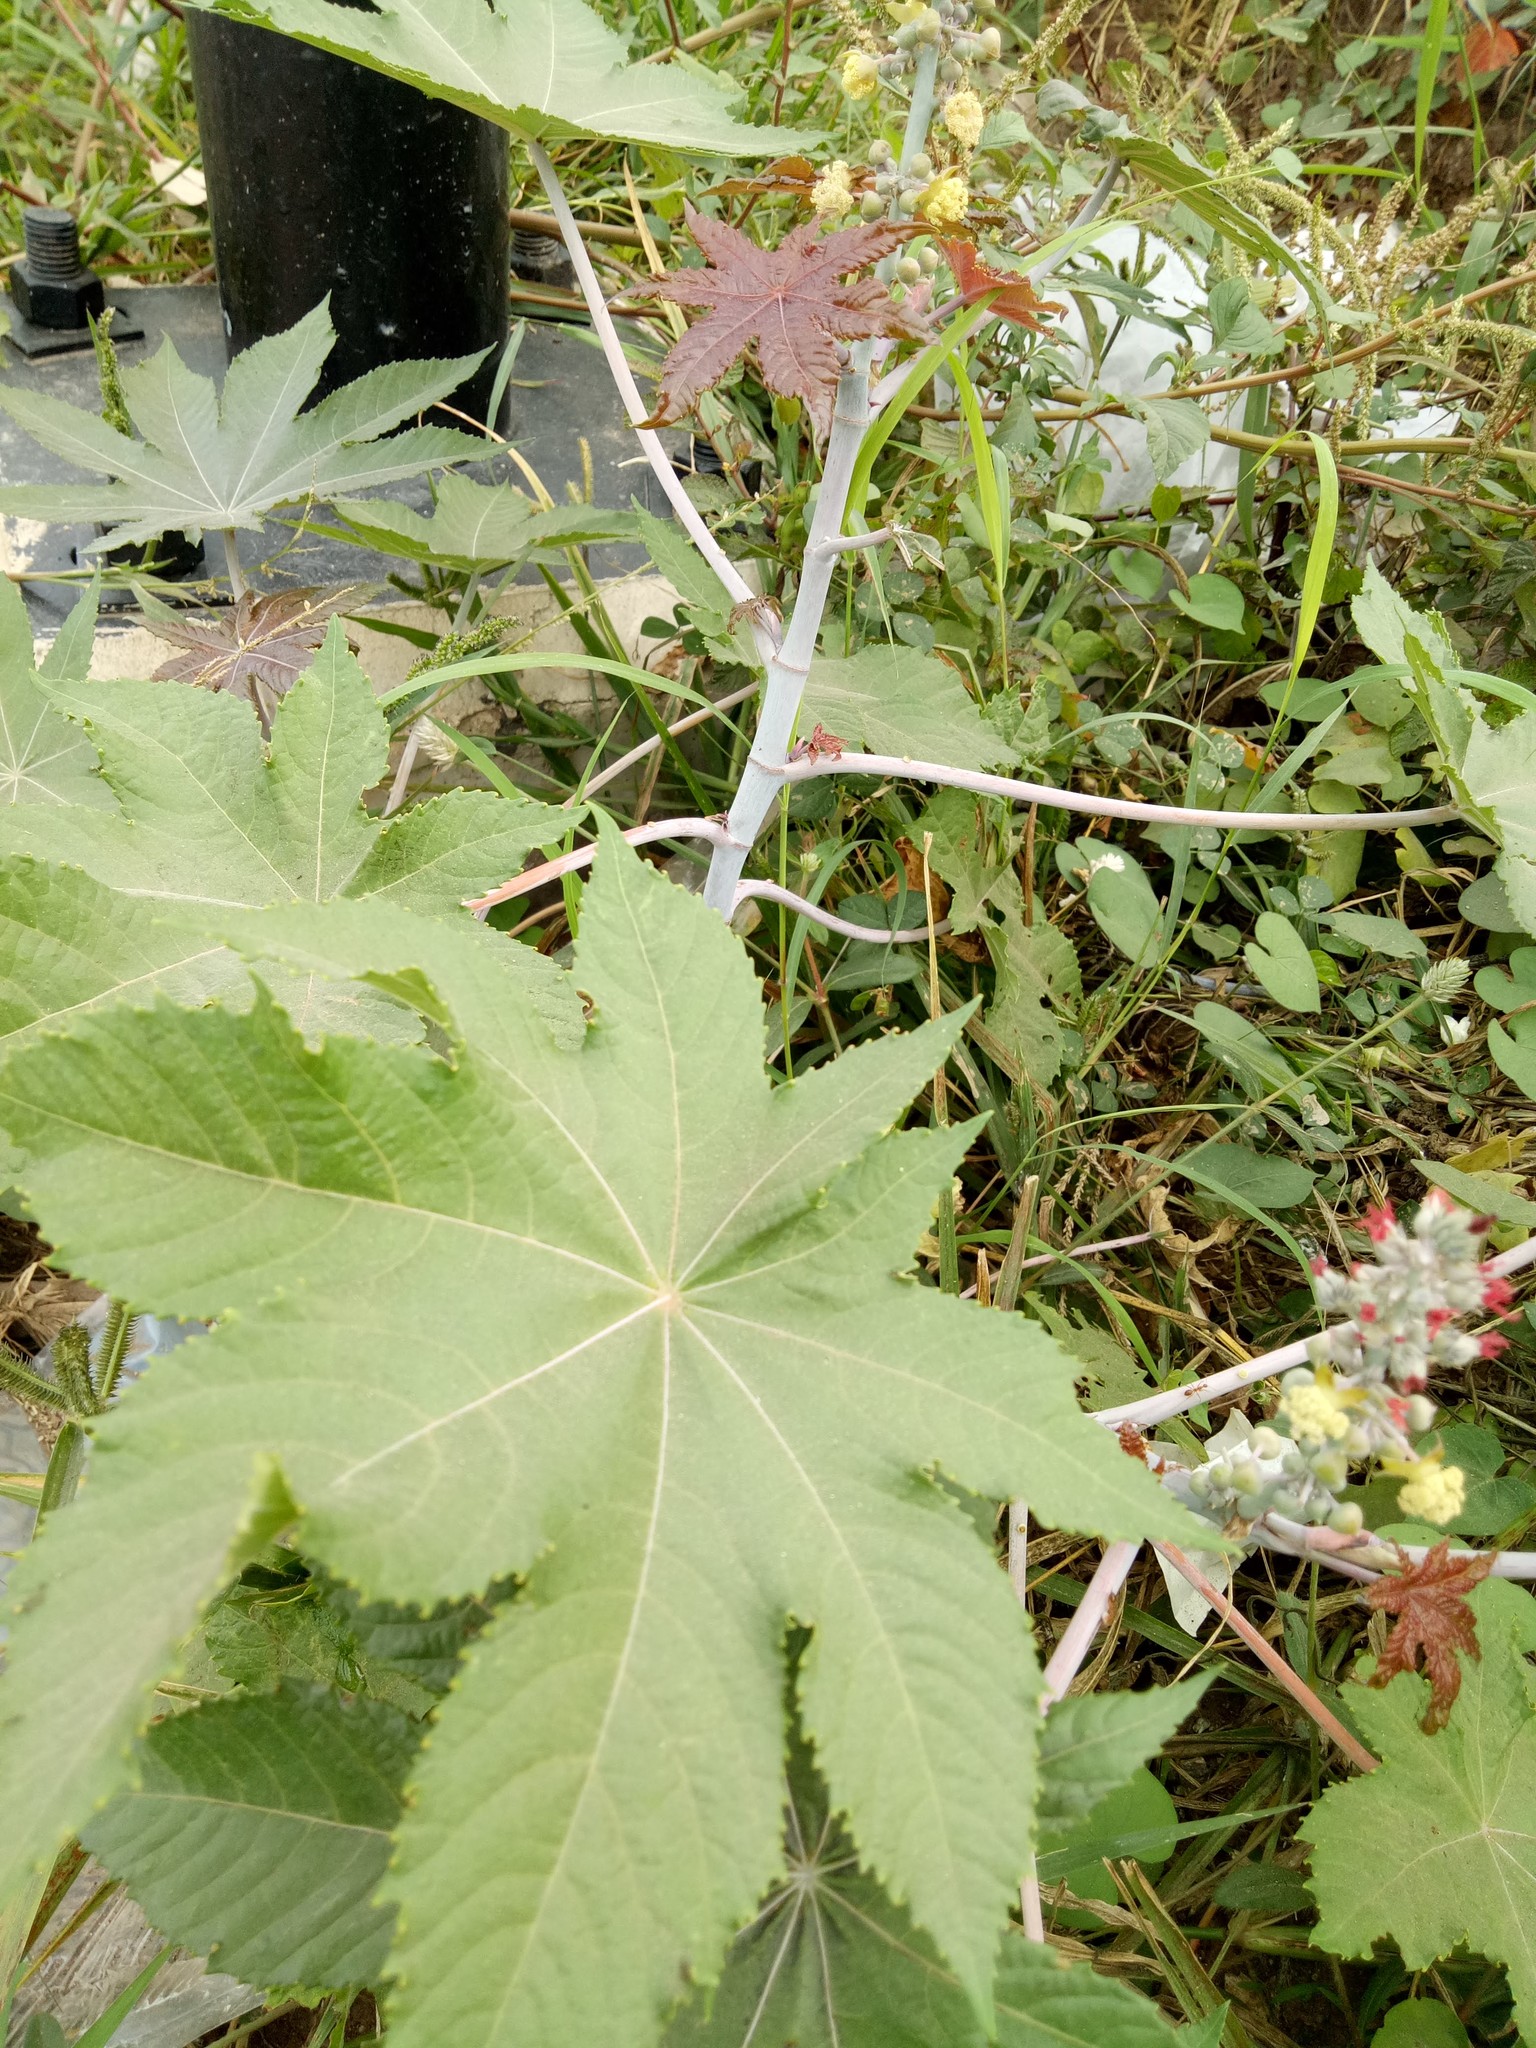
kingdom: Plantae
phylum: Tracheophyta
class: Magnoliopsida
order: Malpighiales
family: Euphorbiaceae
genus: Ricinus
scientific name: Ricinus communis
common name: Castor-oil-plant
